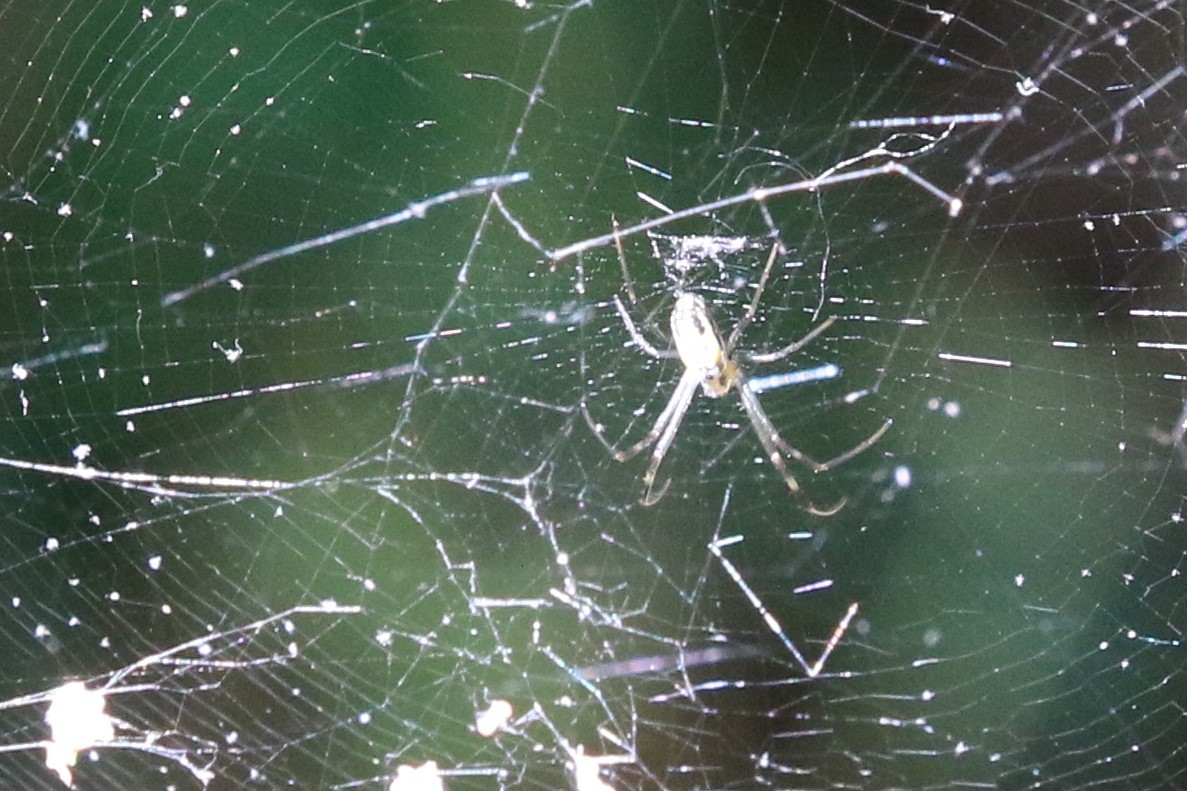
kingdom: Animalia
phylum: Arthropoda
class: Arachnida
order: Araneae
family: Araneidae
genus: Trichonephila
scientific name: Trichonephila clavipes
